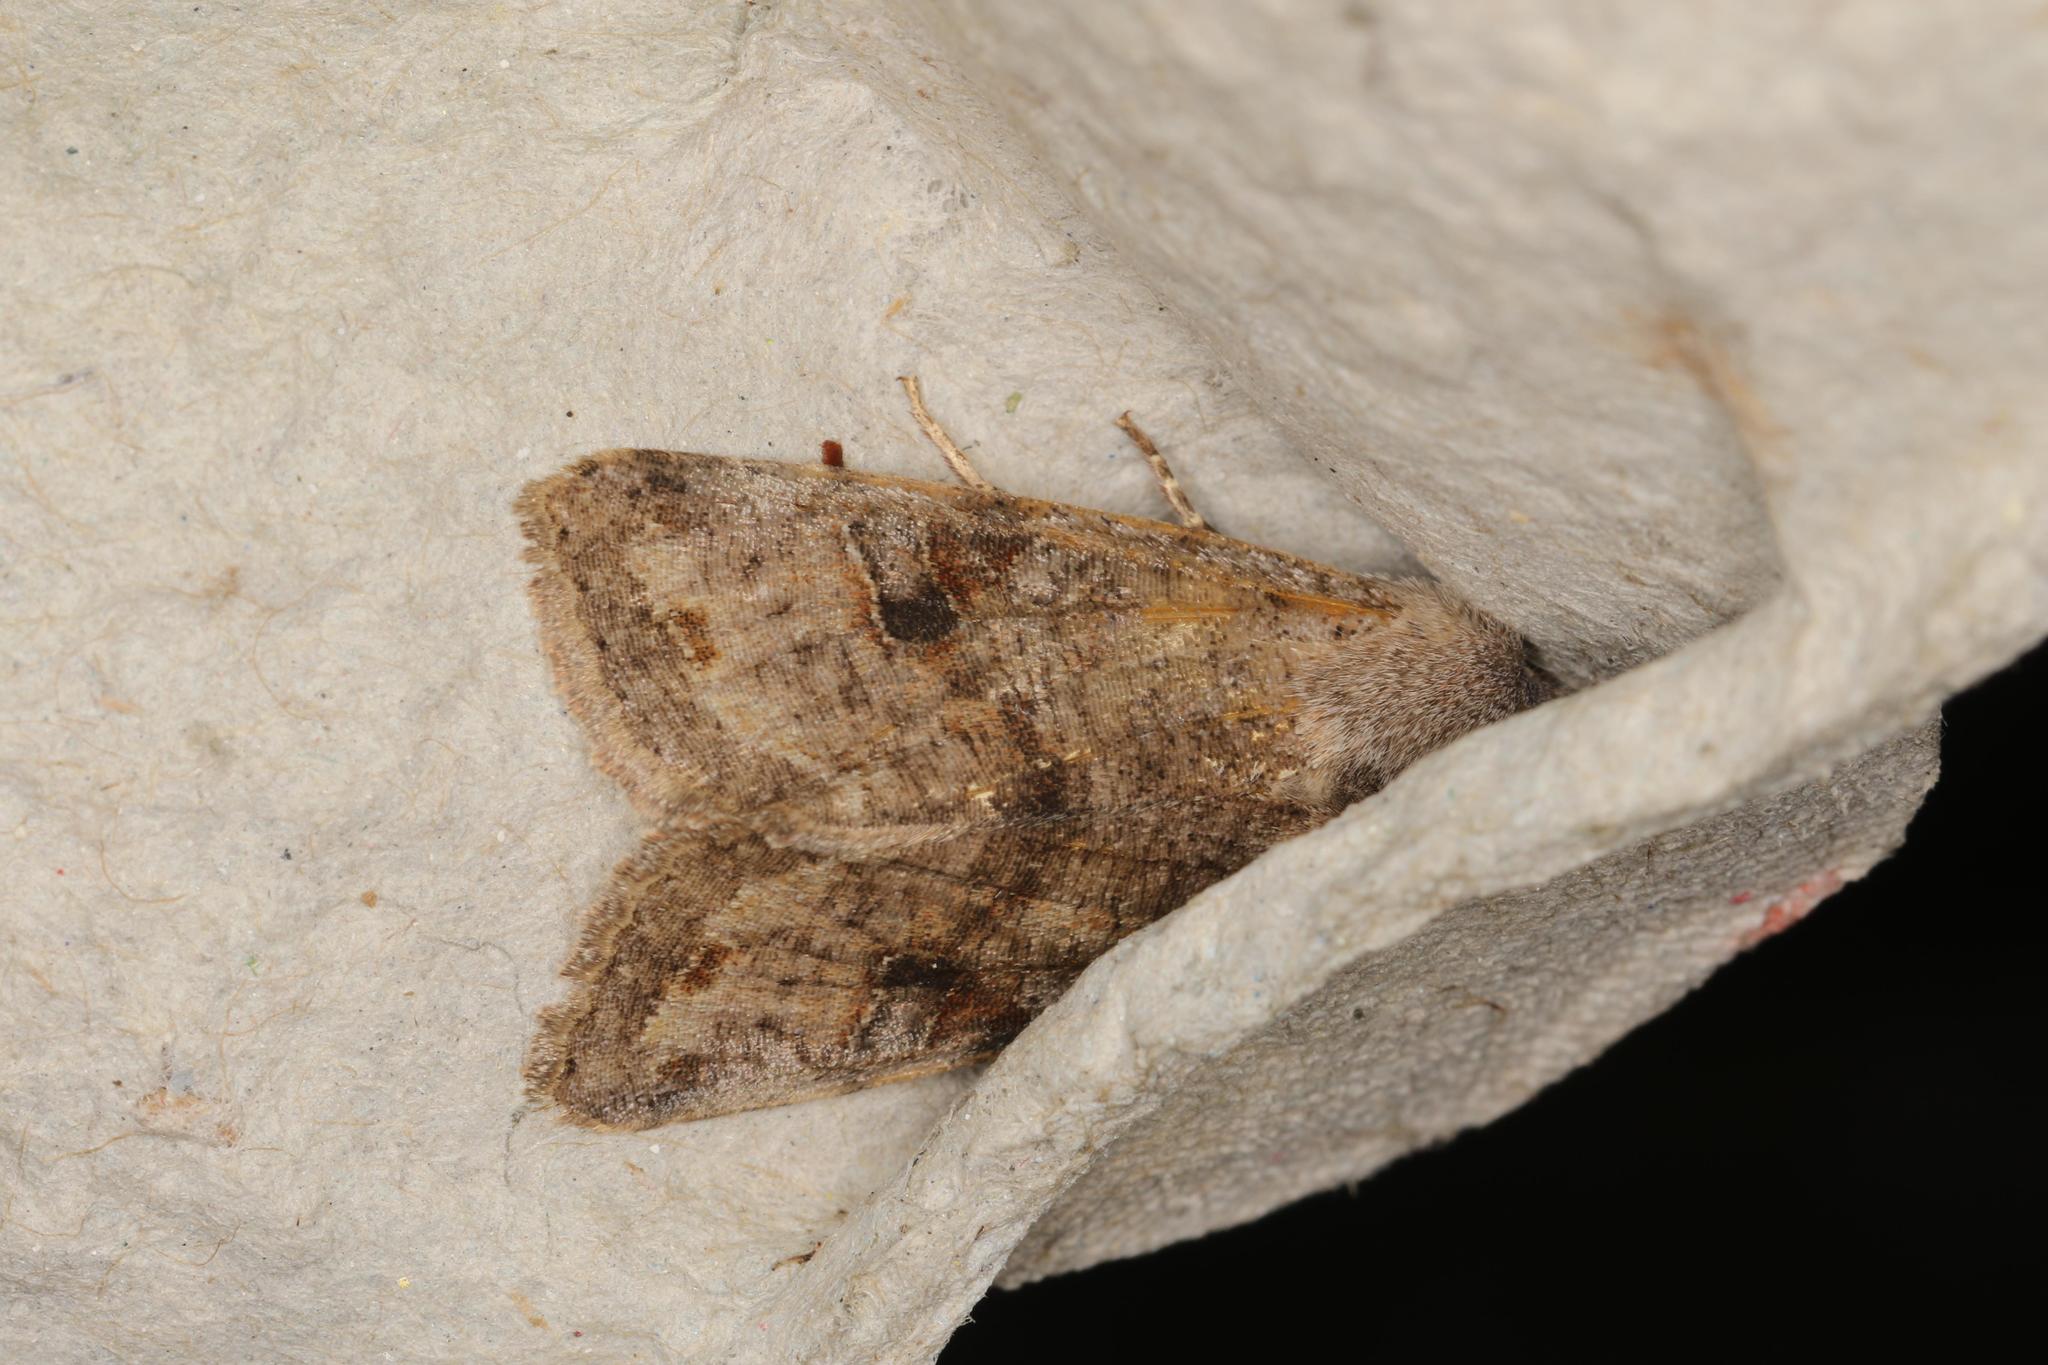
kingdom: Animalia
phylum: Arthropoda
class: Insecta
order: Lepidoptera
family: Noctuidae
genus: Orthosia
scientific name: Orthosia incerta
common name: Clouded drab
